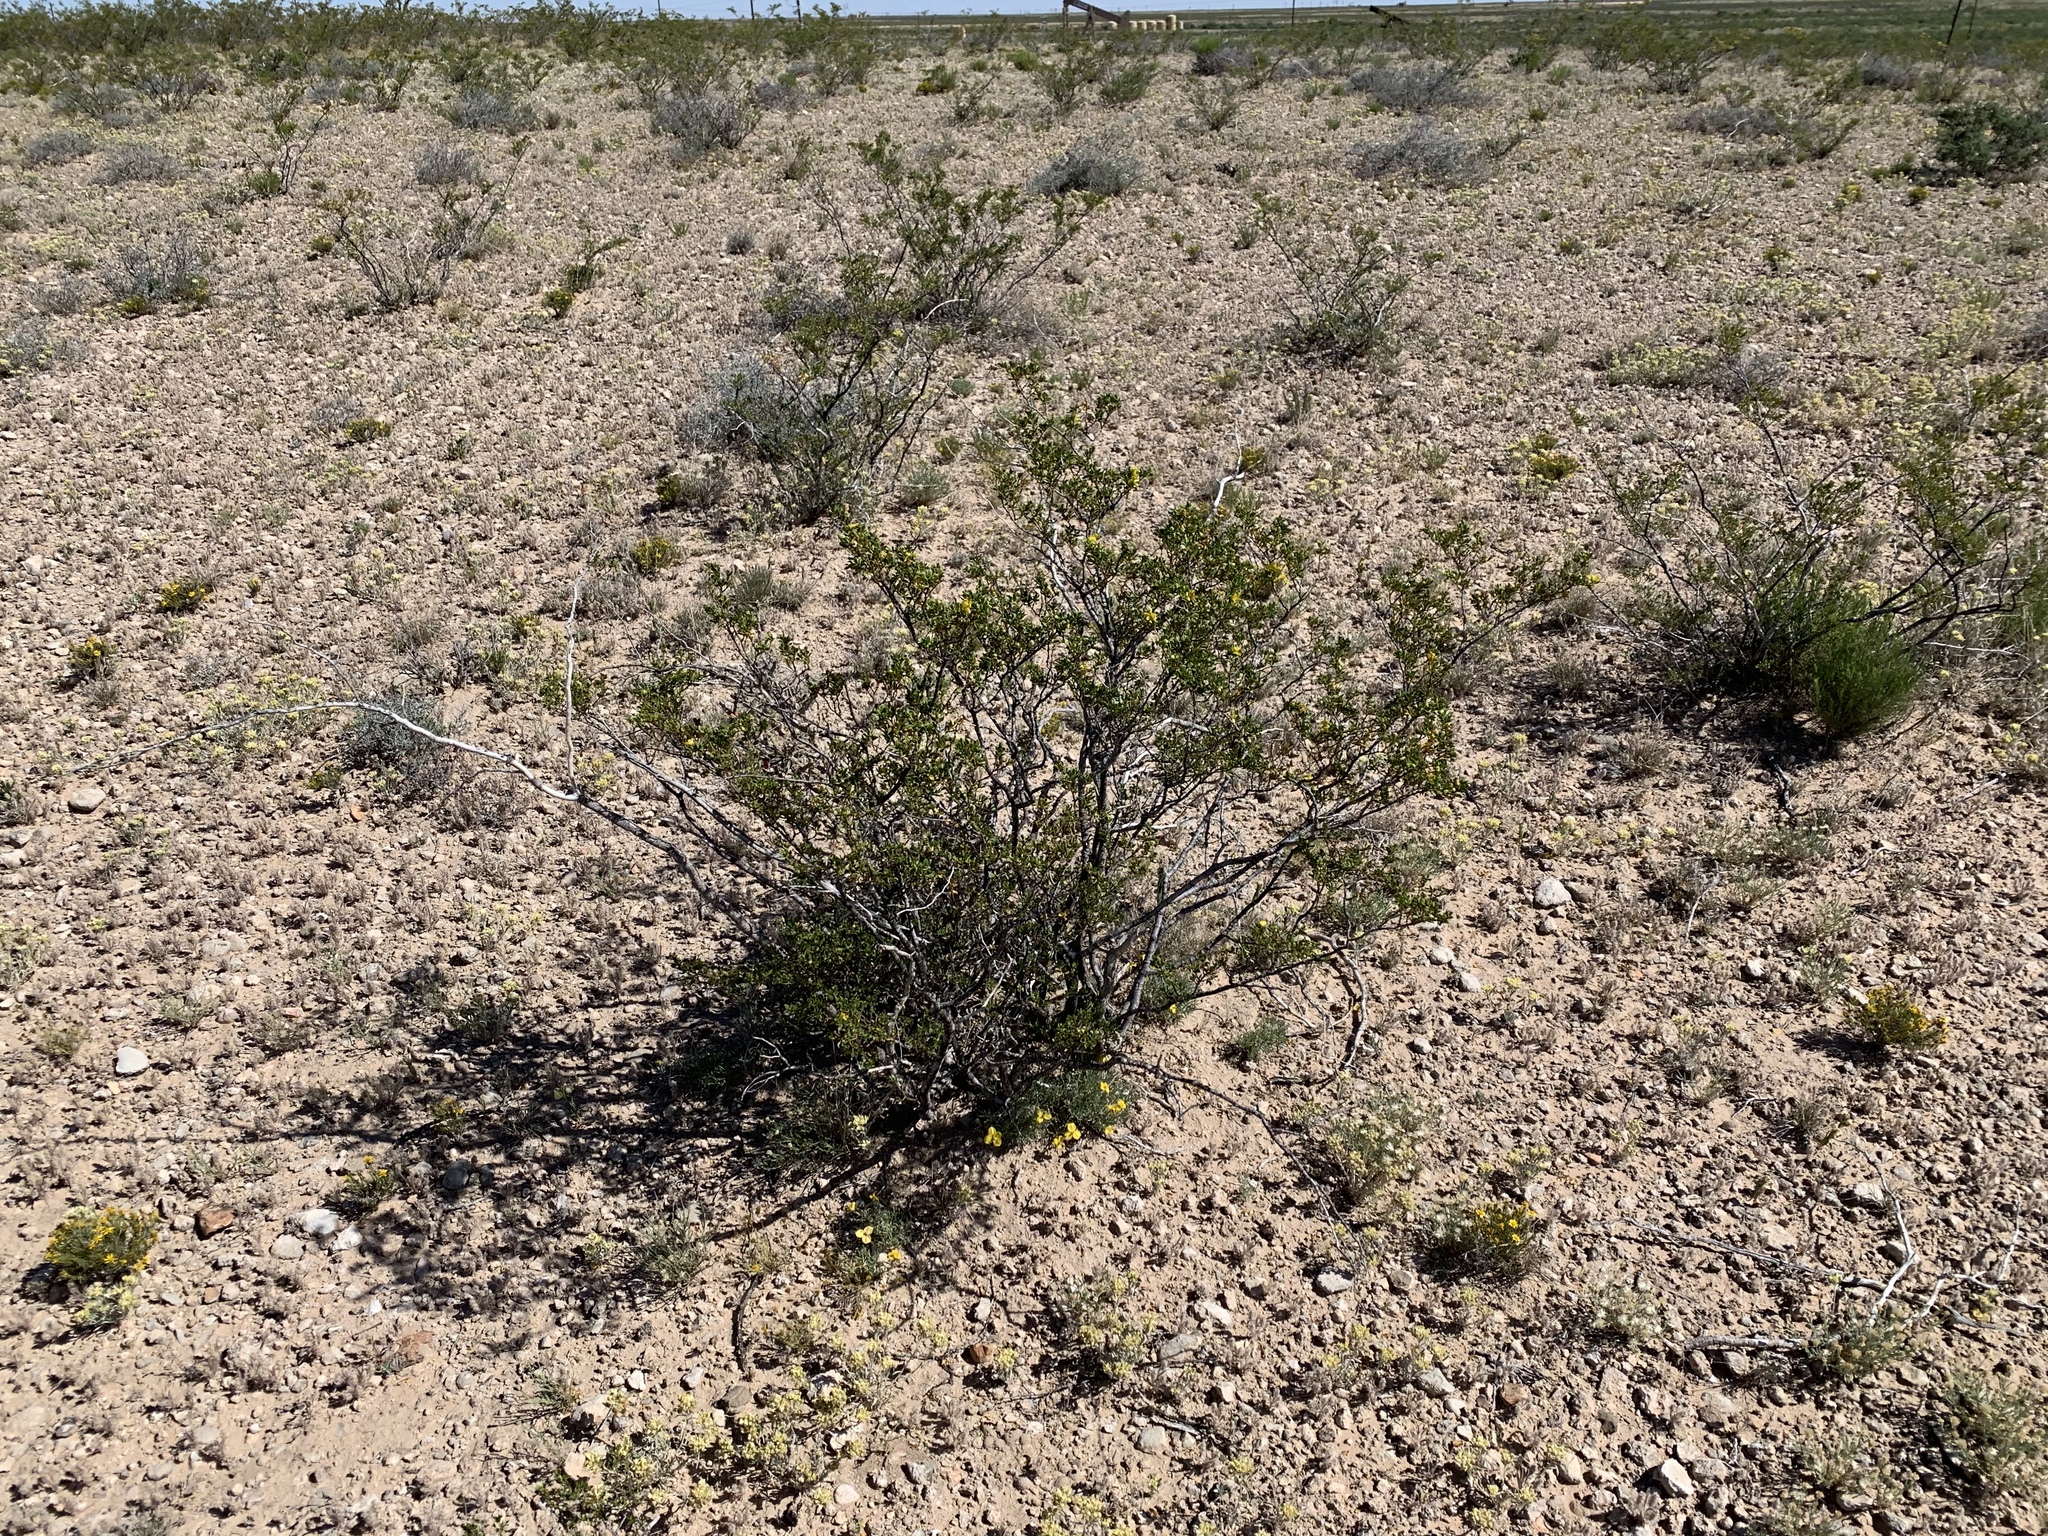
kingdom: Plantae
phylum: Tracheophyta
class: Magnoliopsida
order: Zygophyllales
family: Zygophyllaceae
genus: Larrea
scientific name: Larrea tridentata
